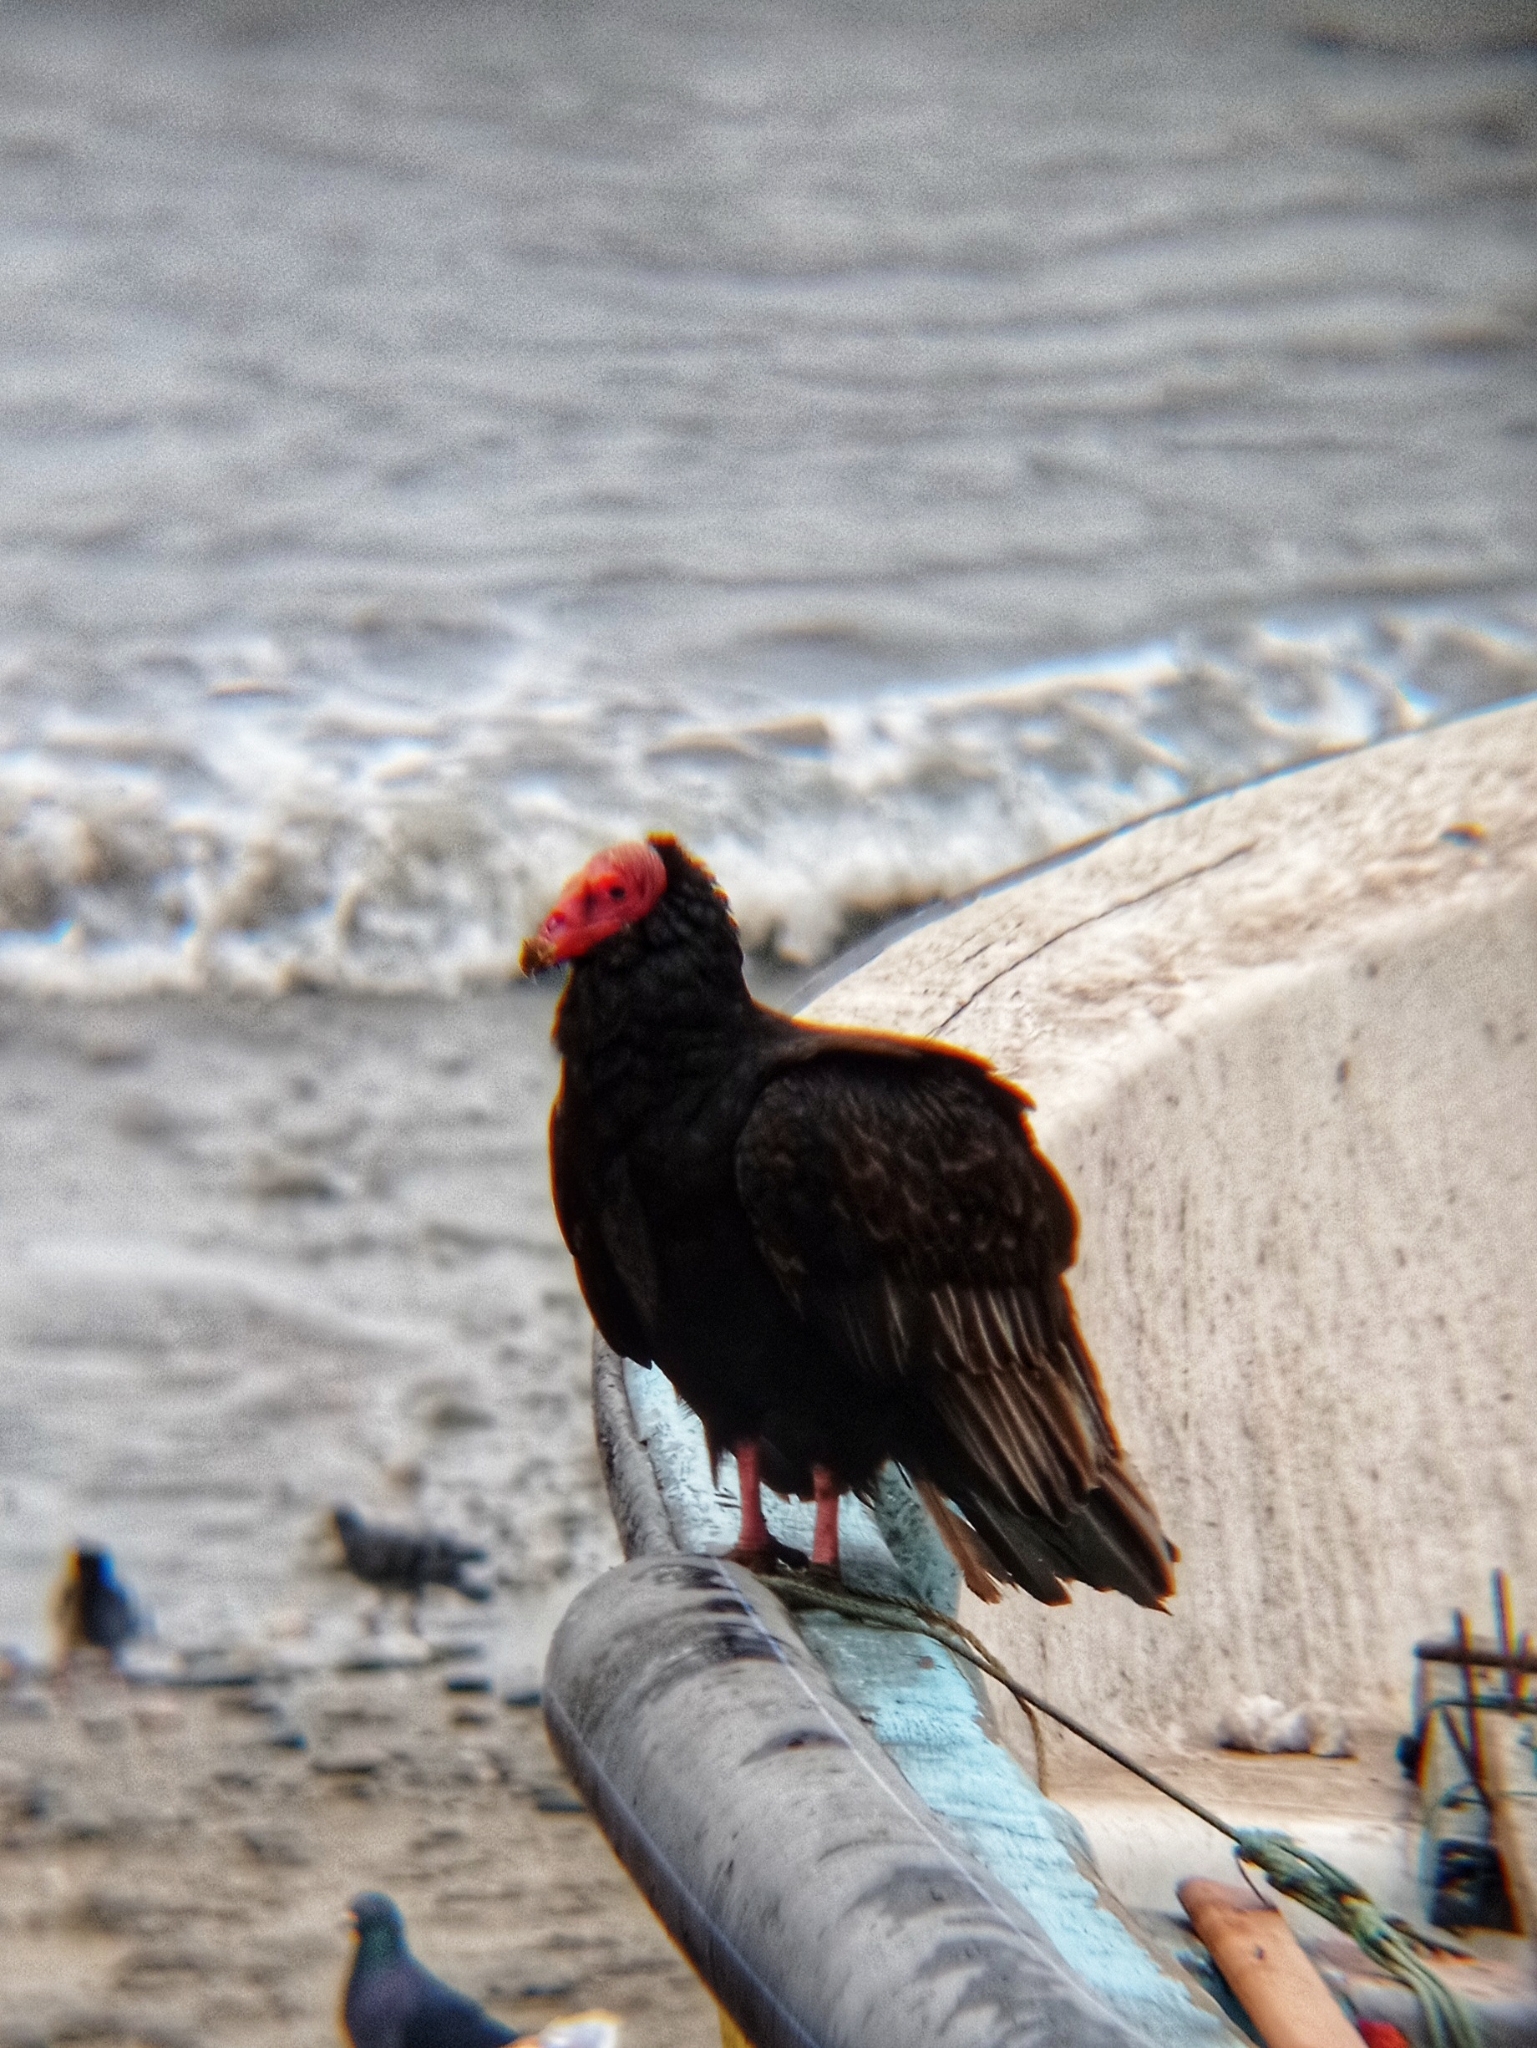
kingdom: Animalia
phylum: Chordata
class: Aves
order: Accipitriformes
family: Cathartidae
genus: Cathartes
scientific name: Cathartes aura
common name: Turkey vulture
